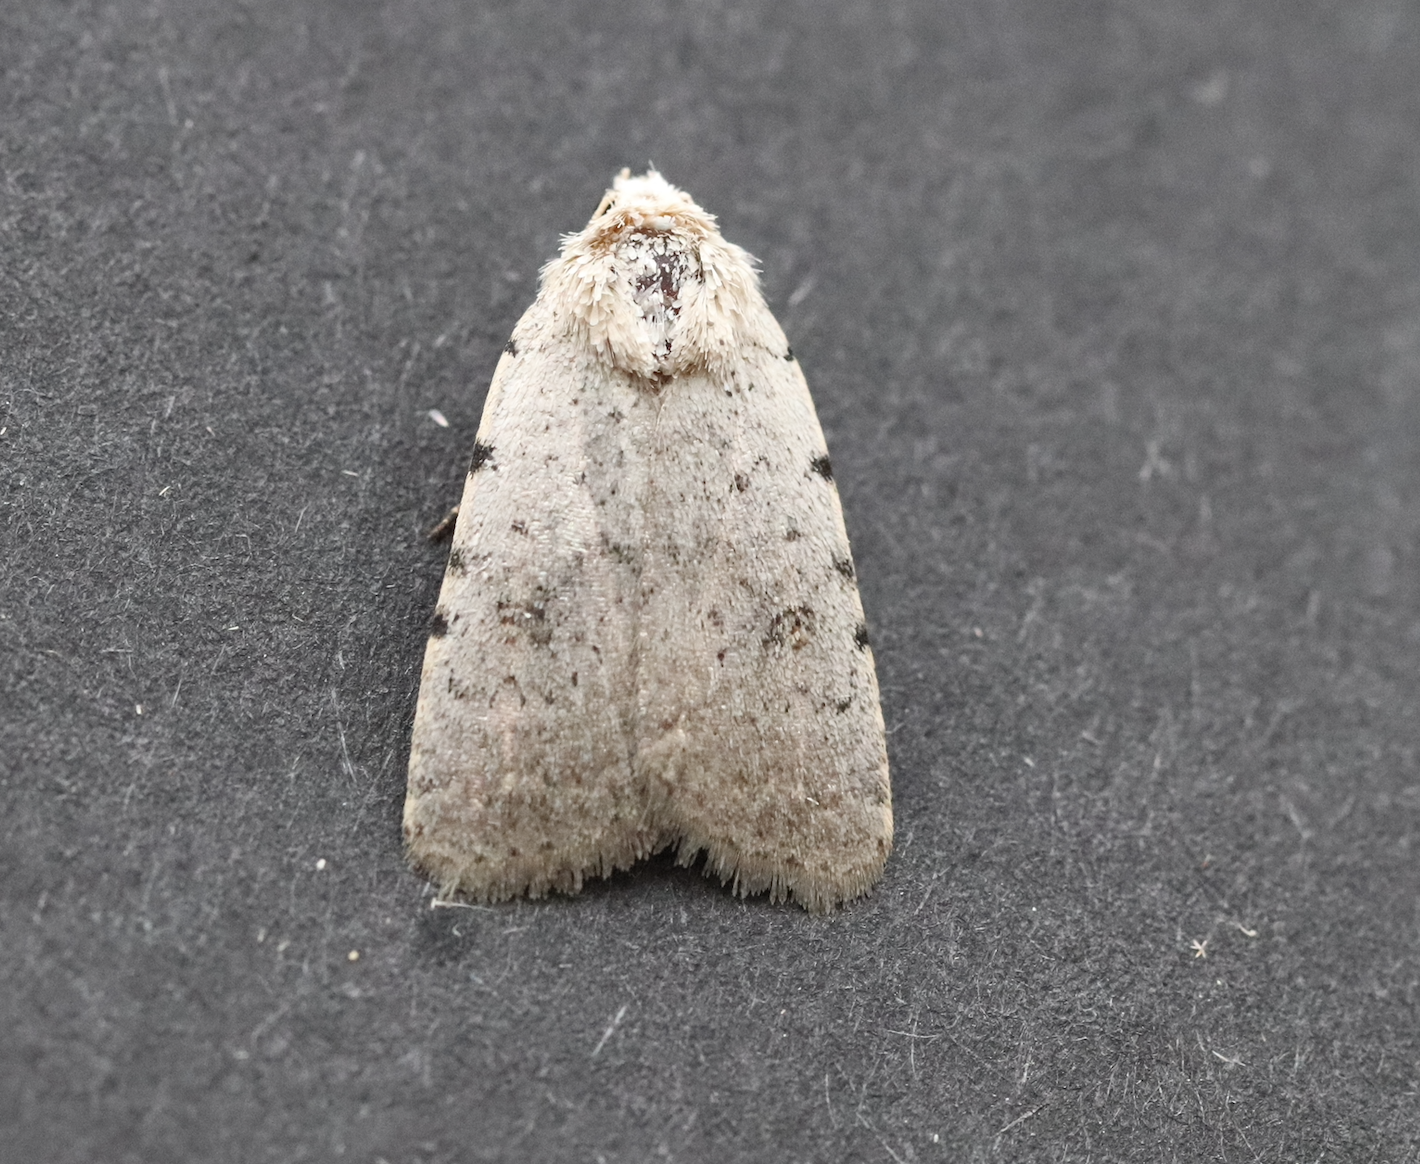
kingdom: Animalia
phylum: Arthropoda
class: Insecta
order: Lepidoptera
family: Noctuidae
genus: Caradrina
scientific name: Caradrina selini
